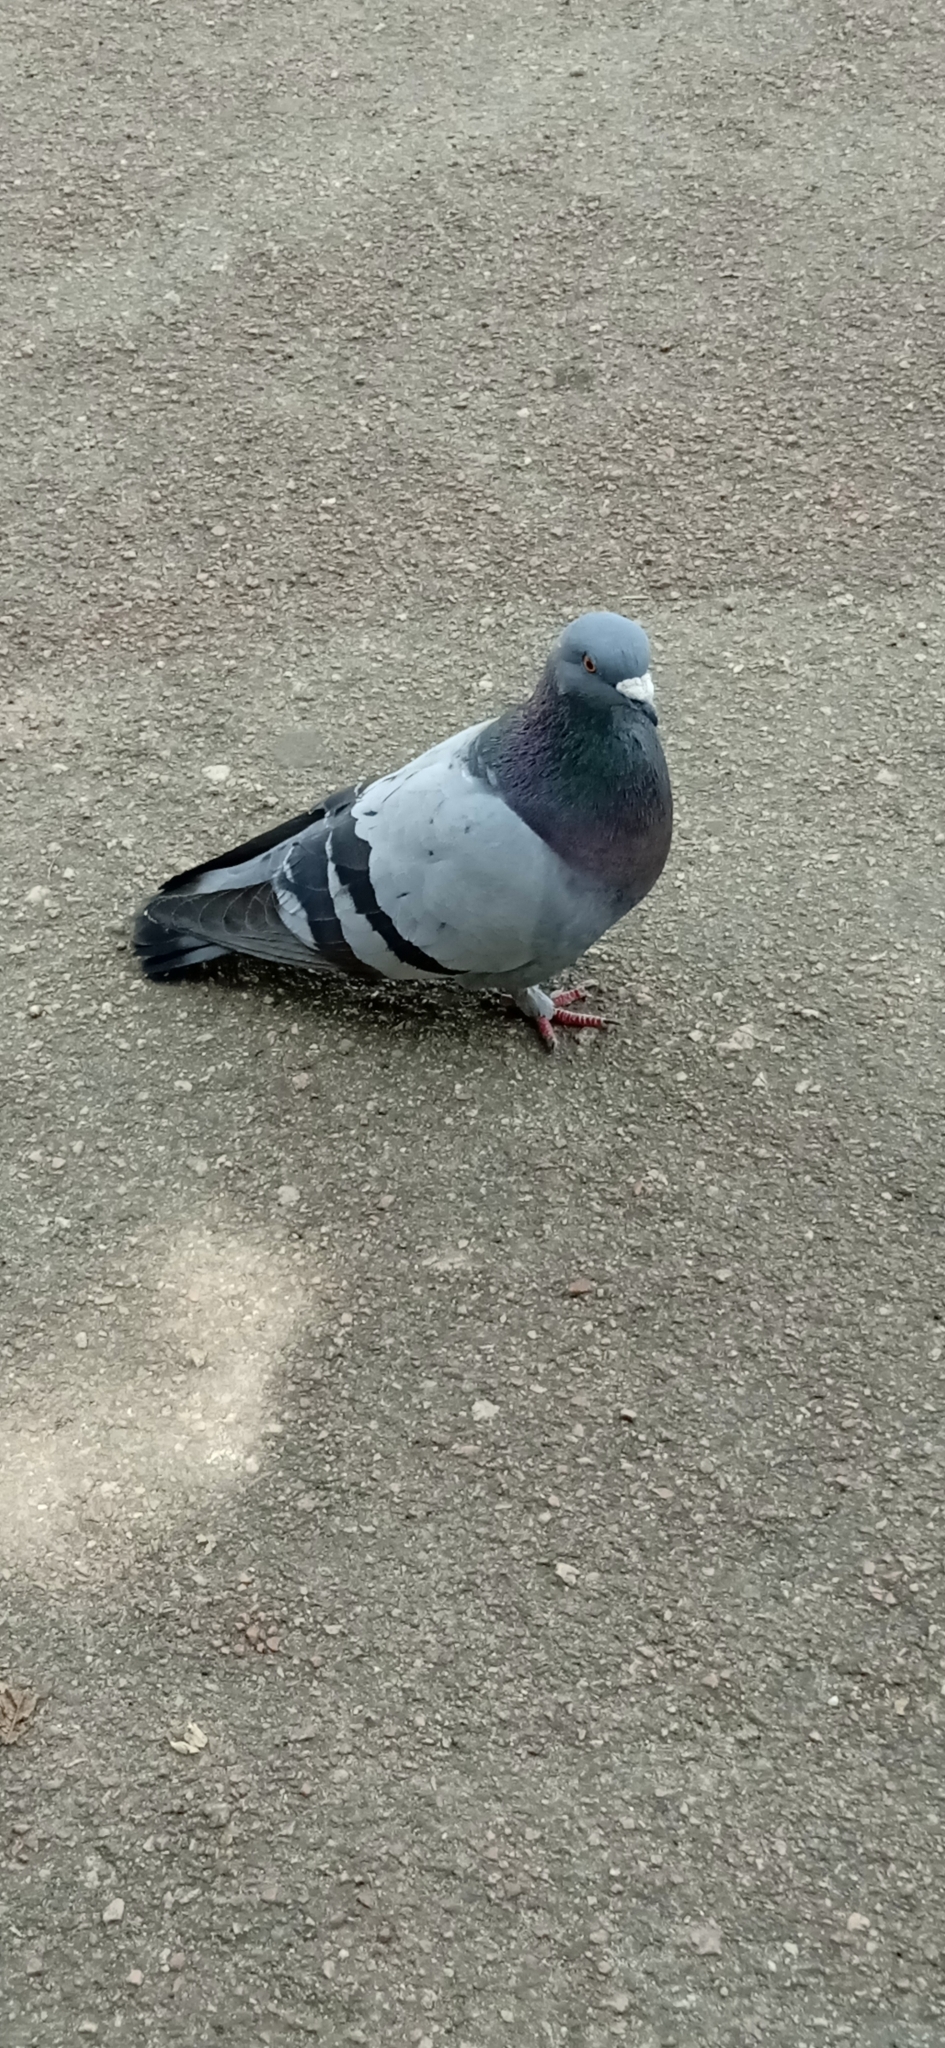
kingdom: Animalia
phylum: Chordata
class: Aves
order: Columbiformes
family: Columbidae
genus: Columba
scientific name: Columba livia
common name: Rock pigeon
